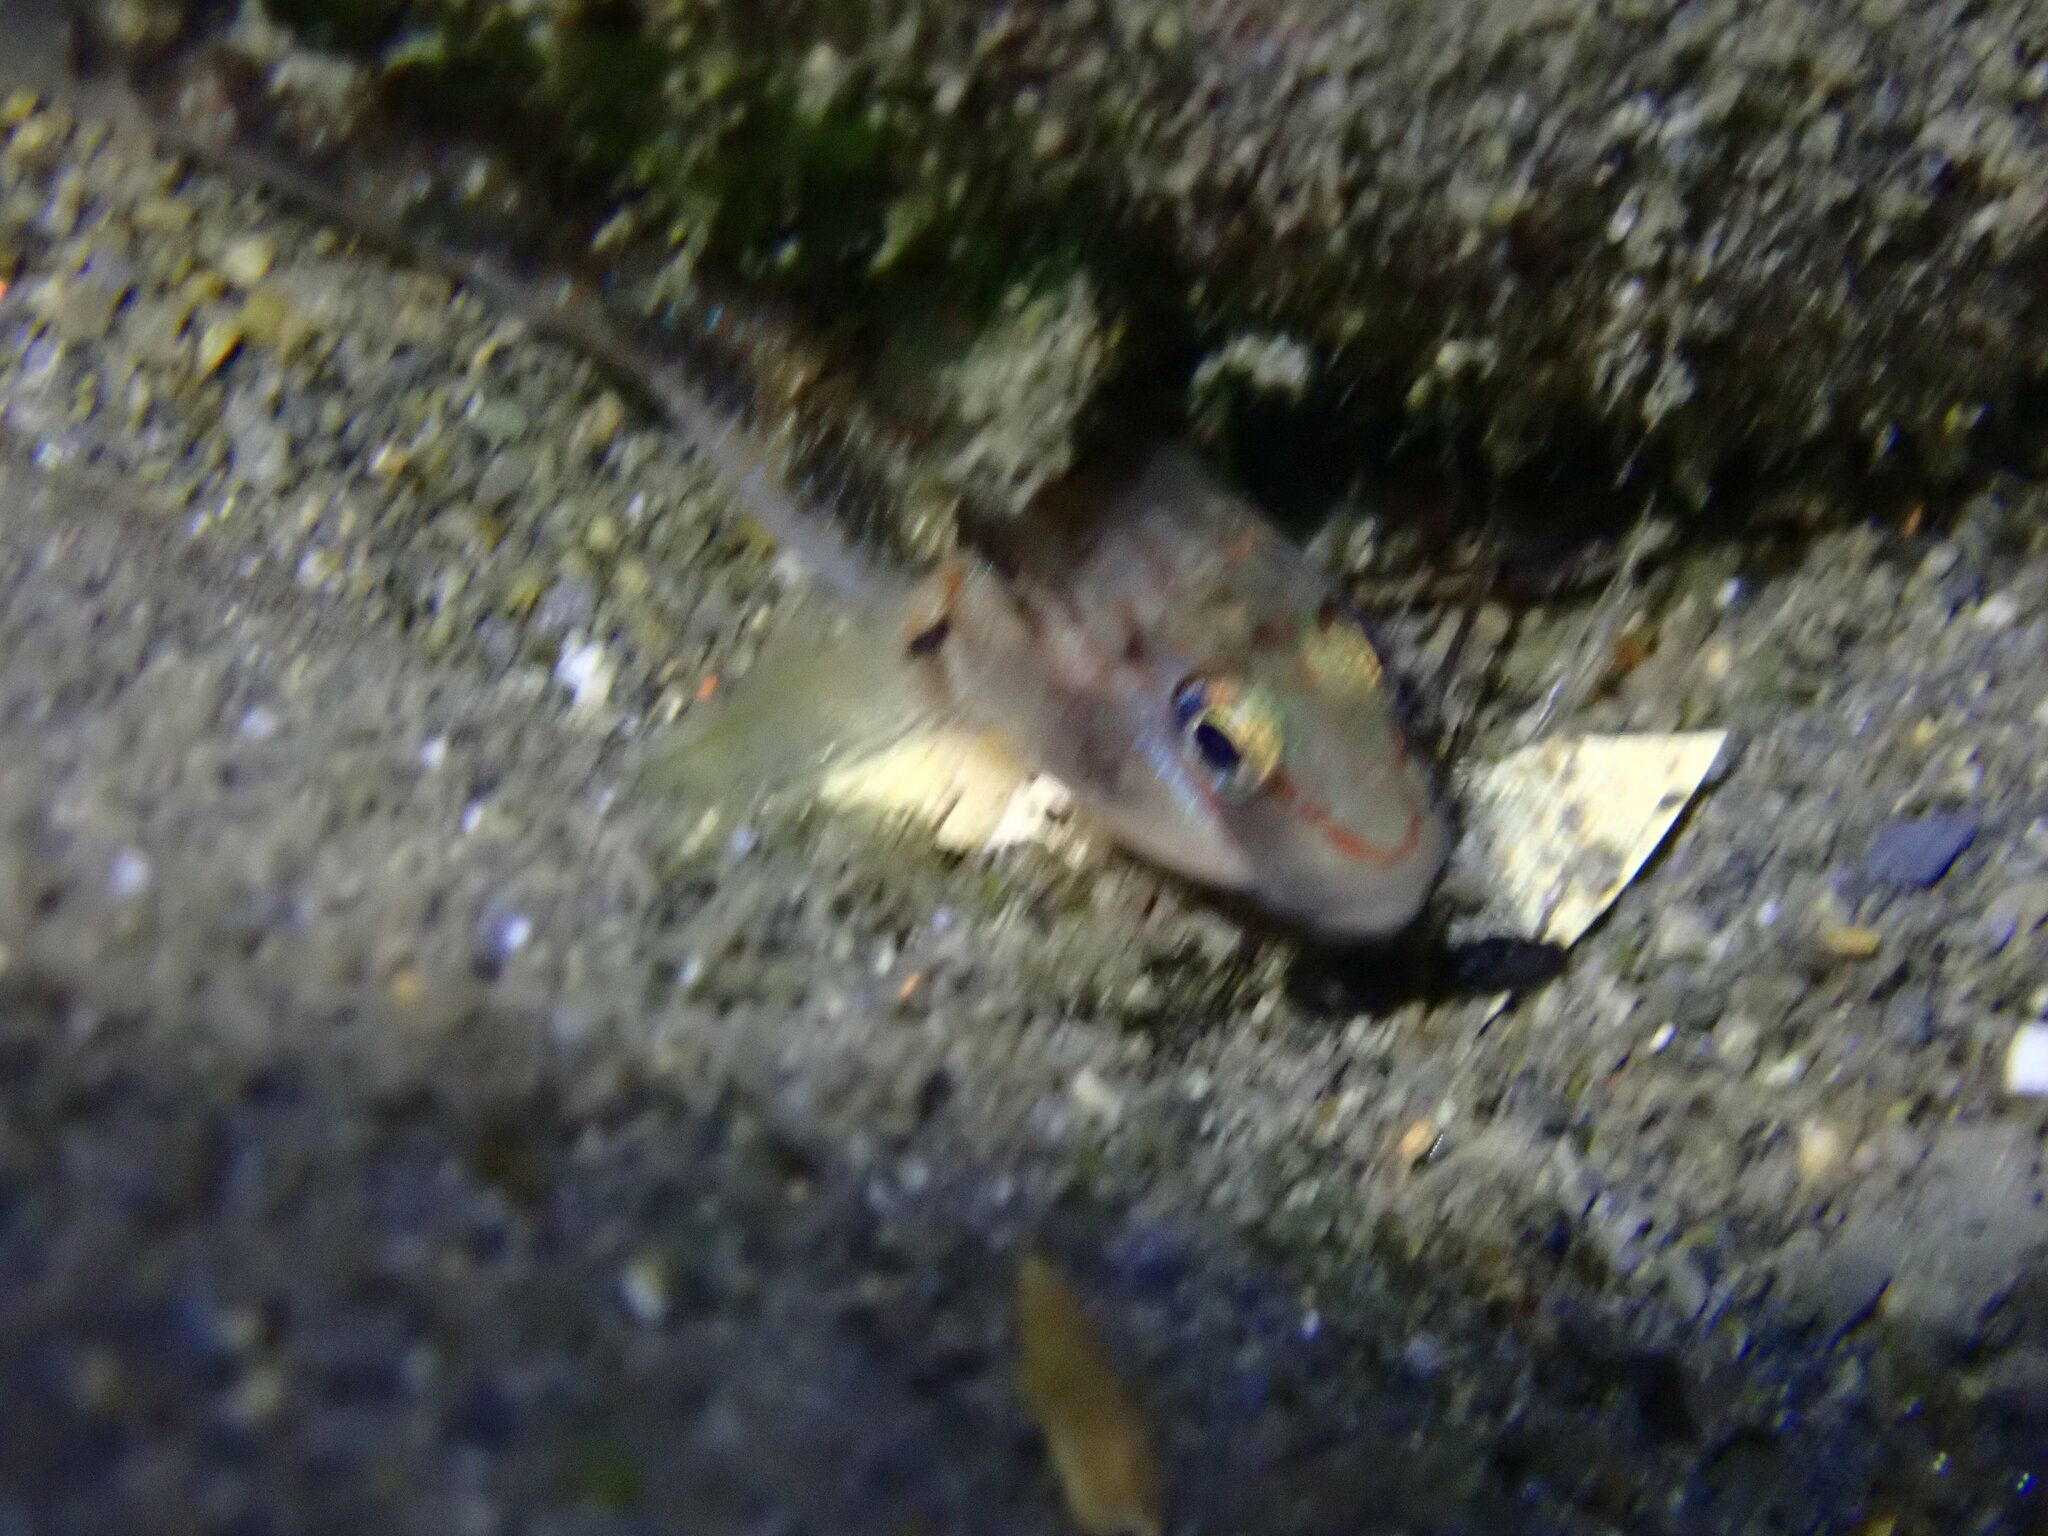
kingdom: Animalia
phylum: Chordata
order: Perciformes
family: Gobiidae
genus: Rhinogobius
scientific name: Rhinogobius candidianus
